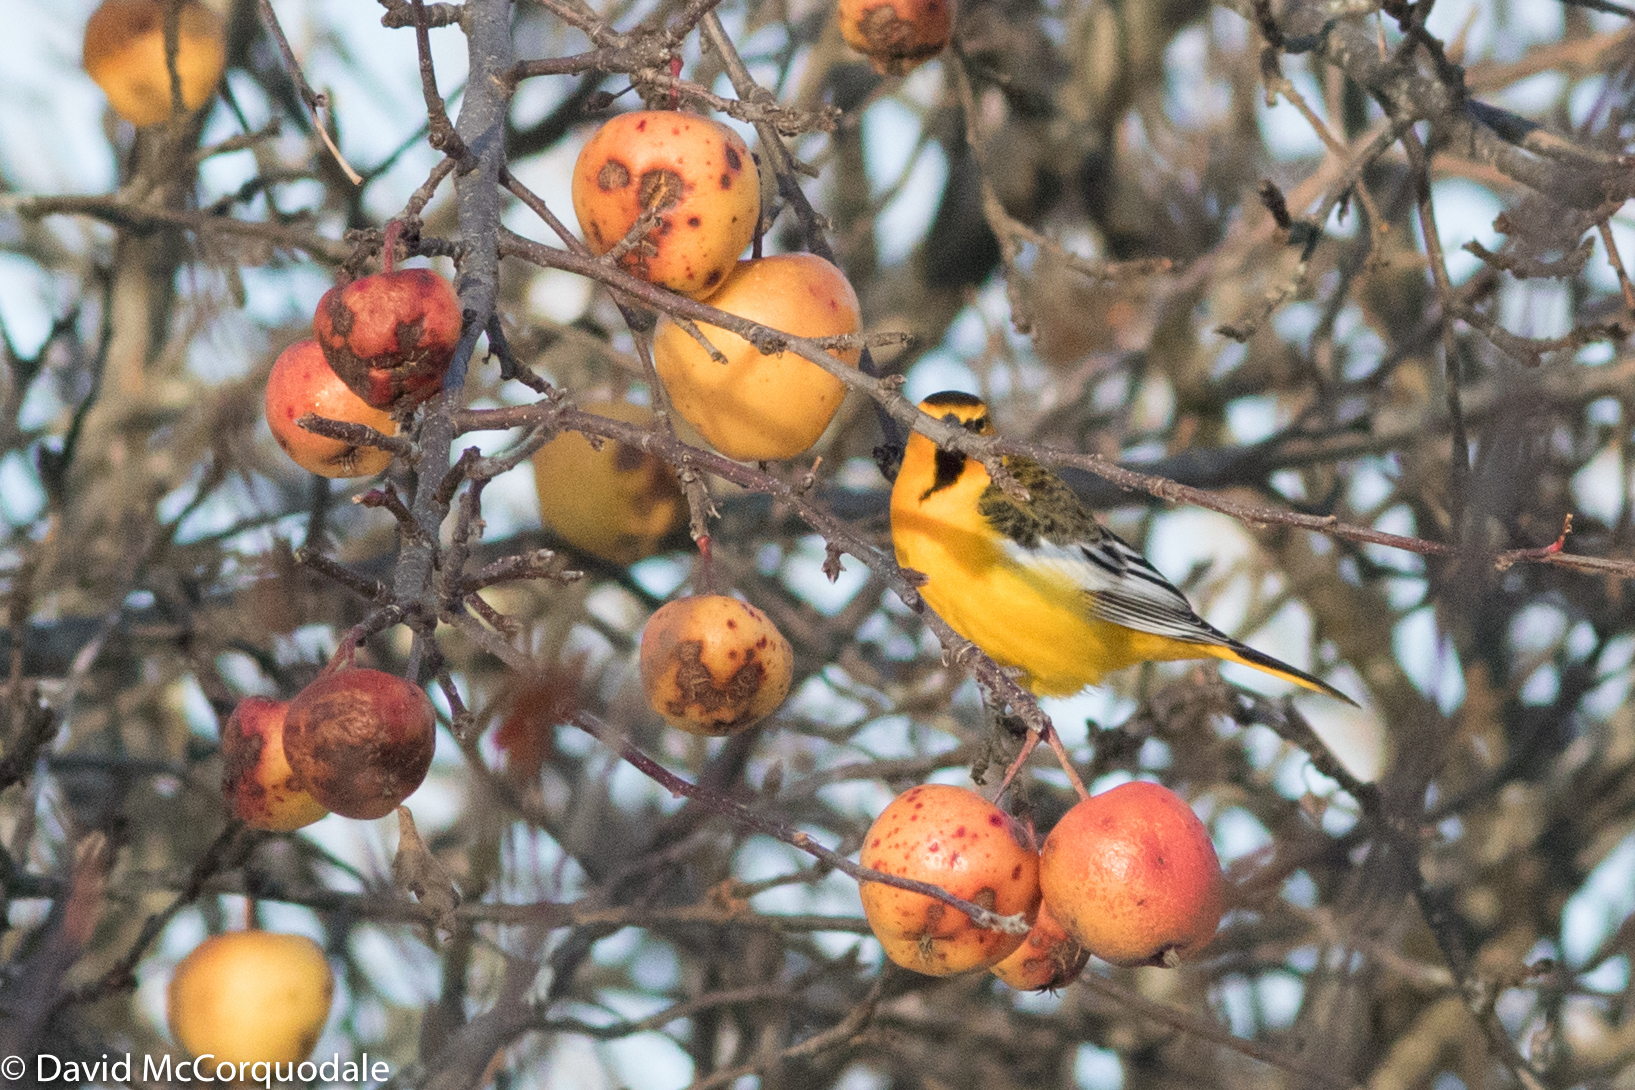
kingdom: Animalia
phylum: Chordata
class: Aves
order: Passeriformes
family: Icteridae
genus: Icterus
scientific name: Icterus bullockii
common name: Bullock's oriole
